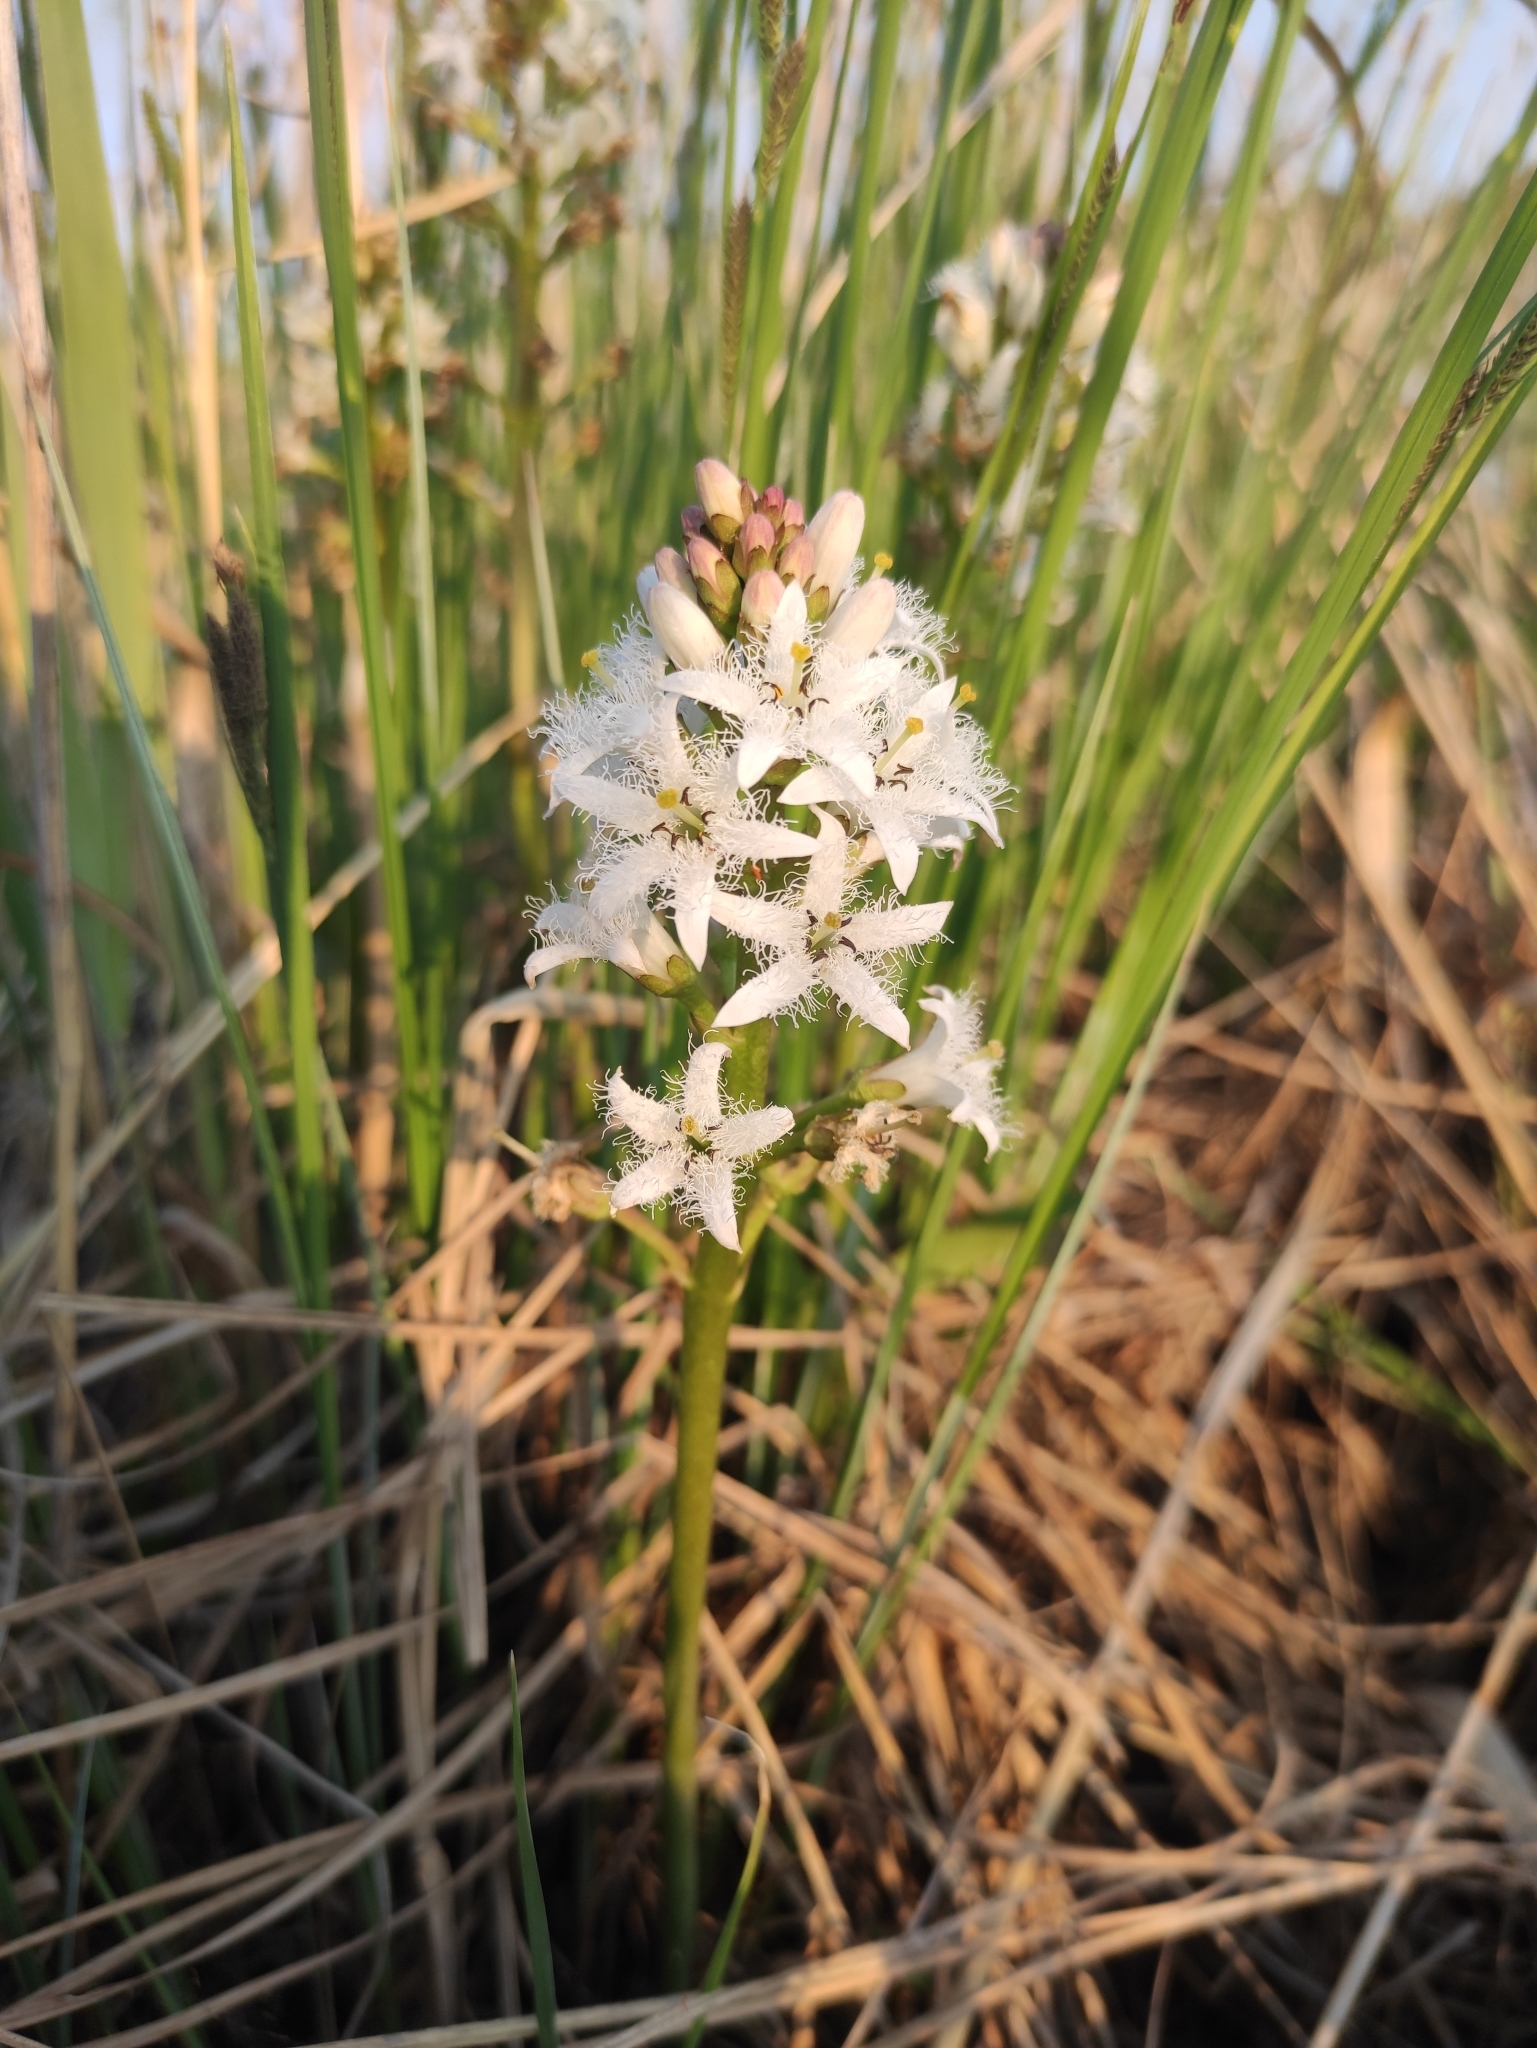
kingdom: Plantae
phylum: Tracheophyta
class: Magnoliopsida
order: Asterales
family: Menyanthaceae
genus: Menyanthes
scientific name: Menyanthes trifoliata
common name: Bogbean
